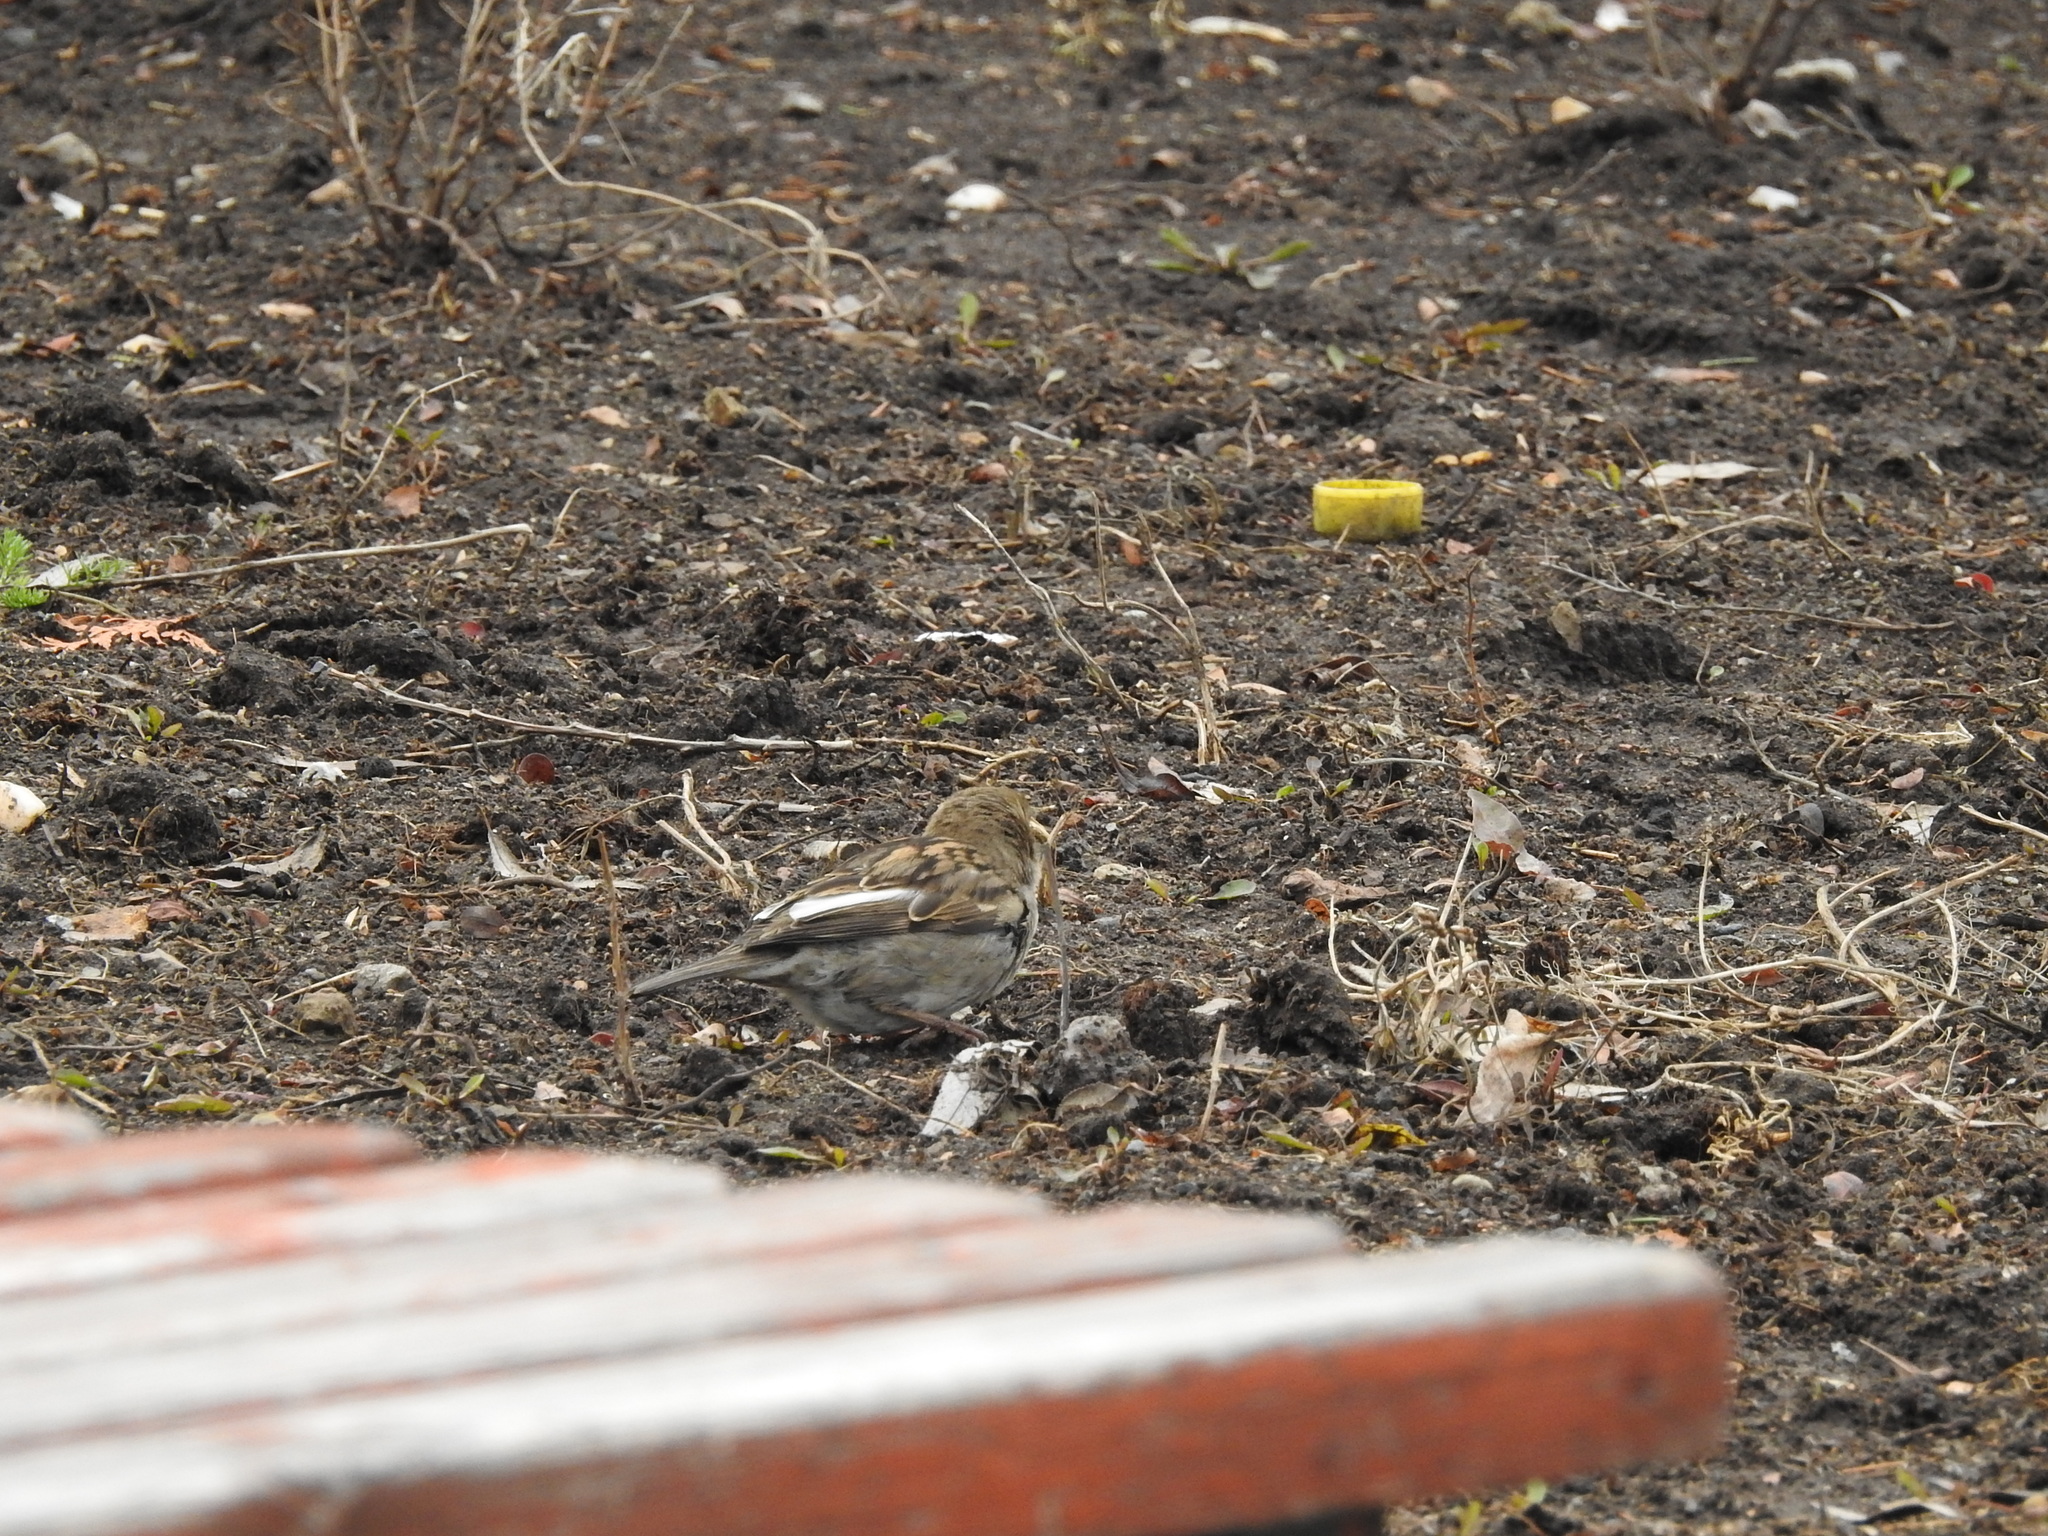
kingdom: Animalia
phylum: Chordata
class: Aves
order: Passeriformes
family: Passeridae
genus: Passer
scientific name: Passer domesticus
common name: House sparrow
